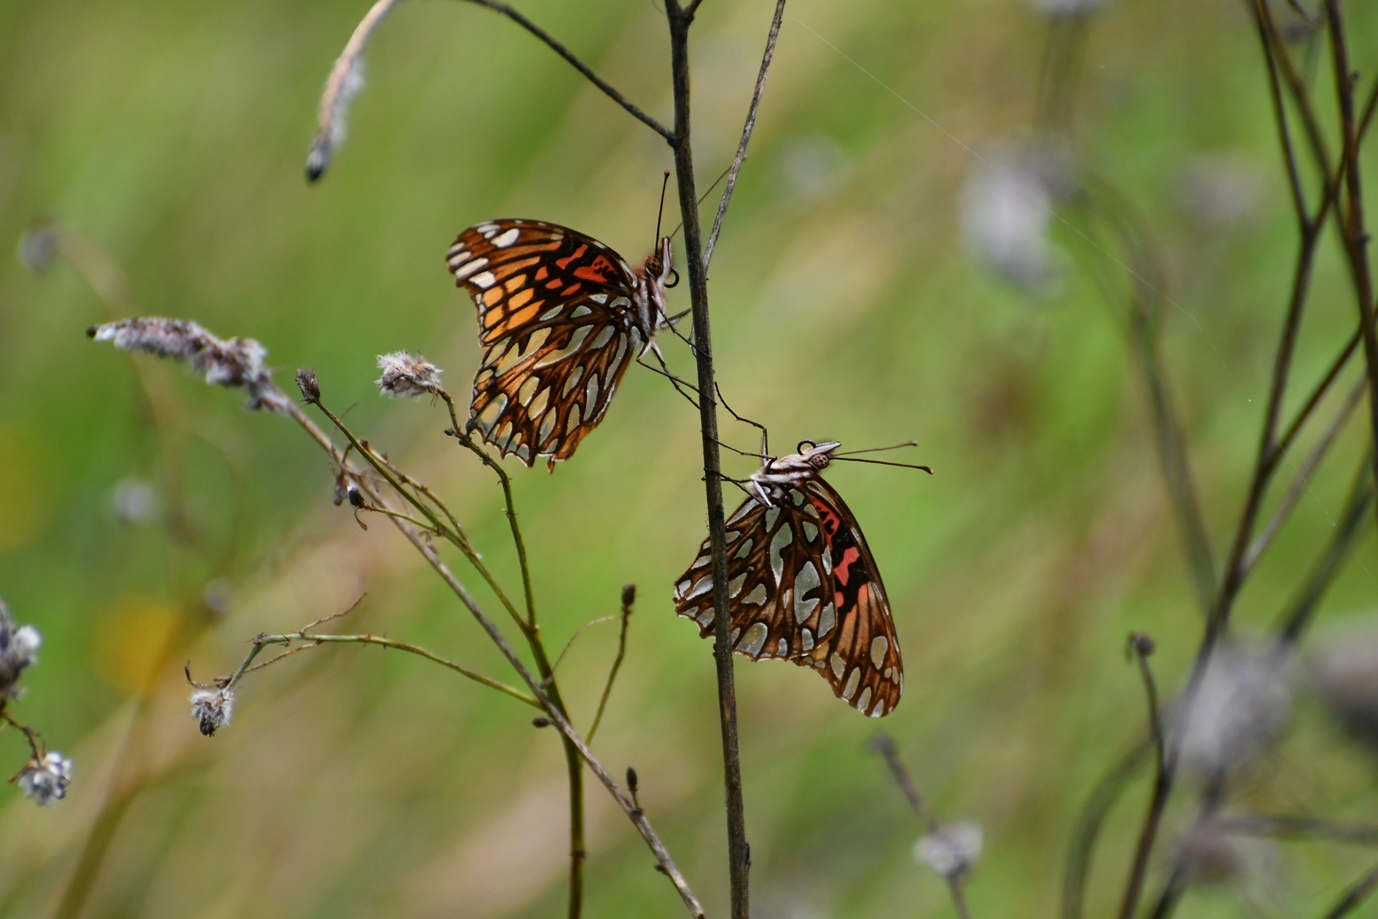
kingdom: Animalia
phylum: Arthropoda
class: Insecta
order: Lepidoptera
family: Nymphalidae
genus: Dione
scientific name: Dione moneta
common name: Mexican silverspot
